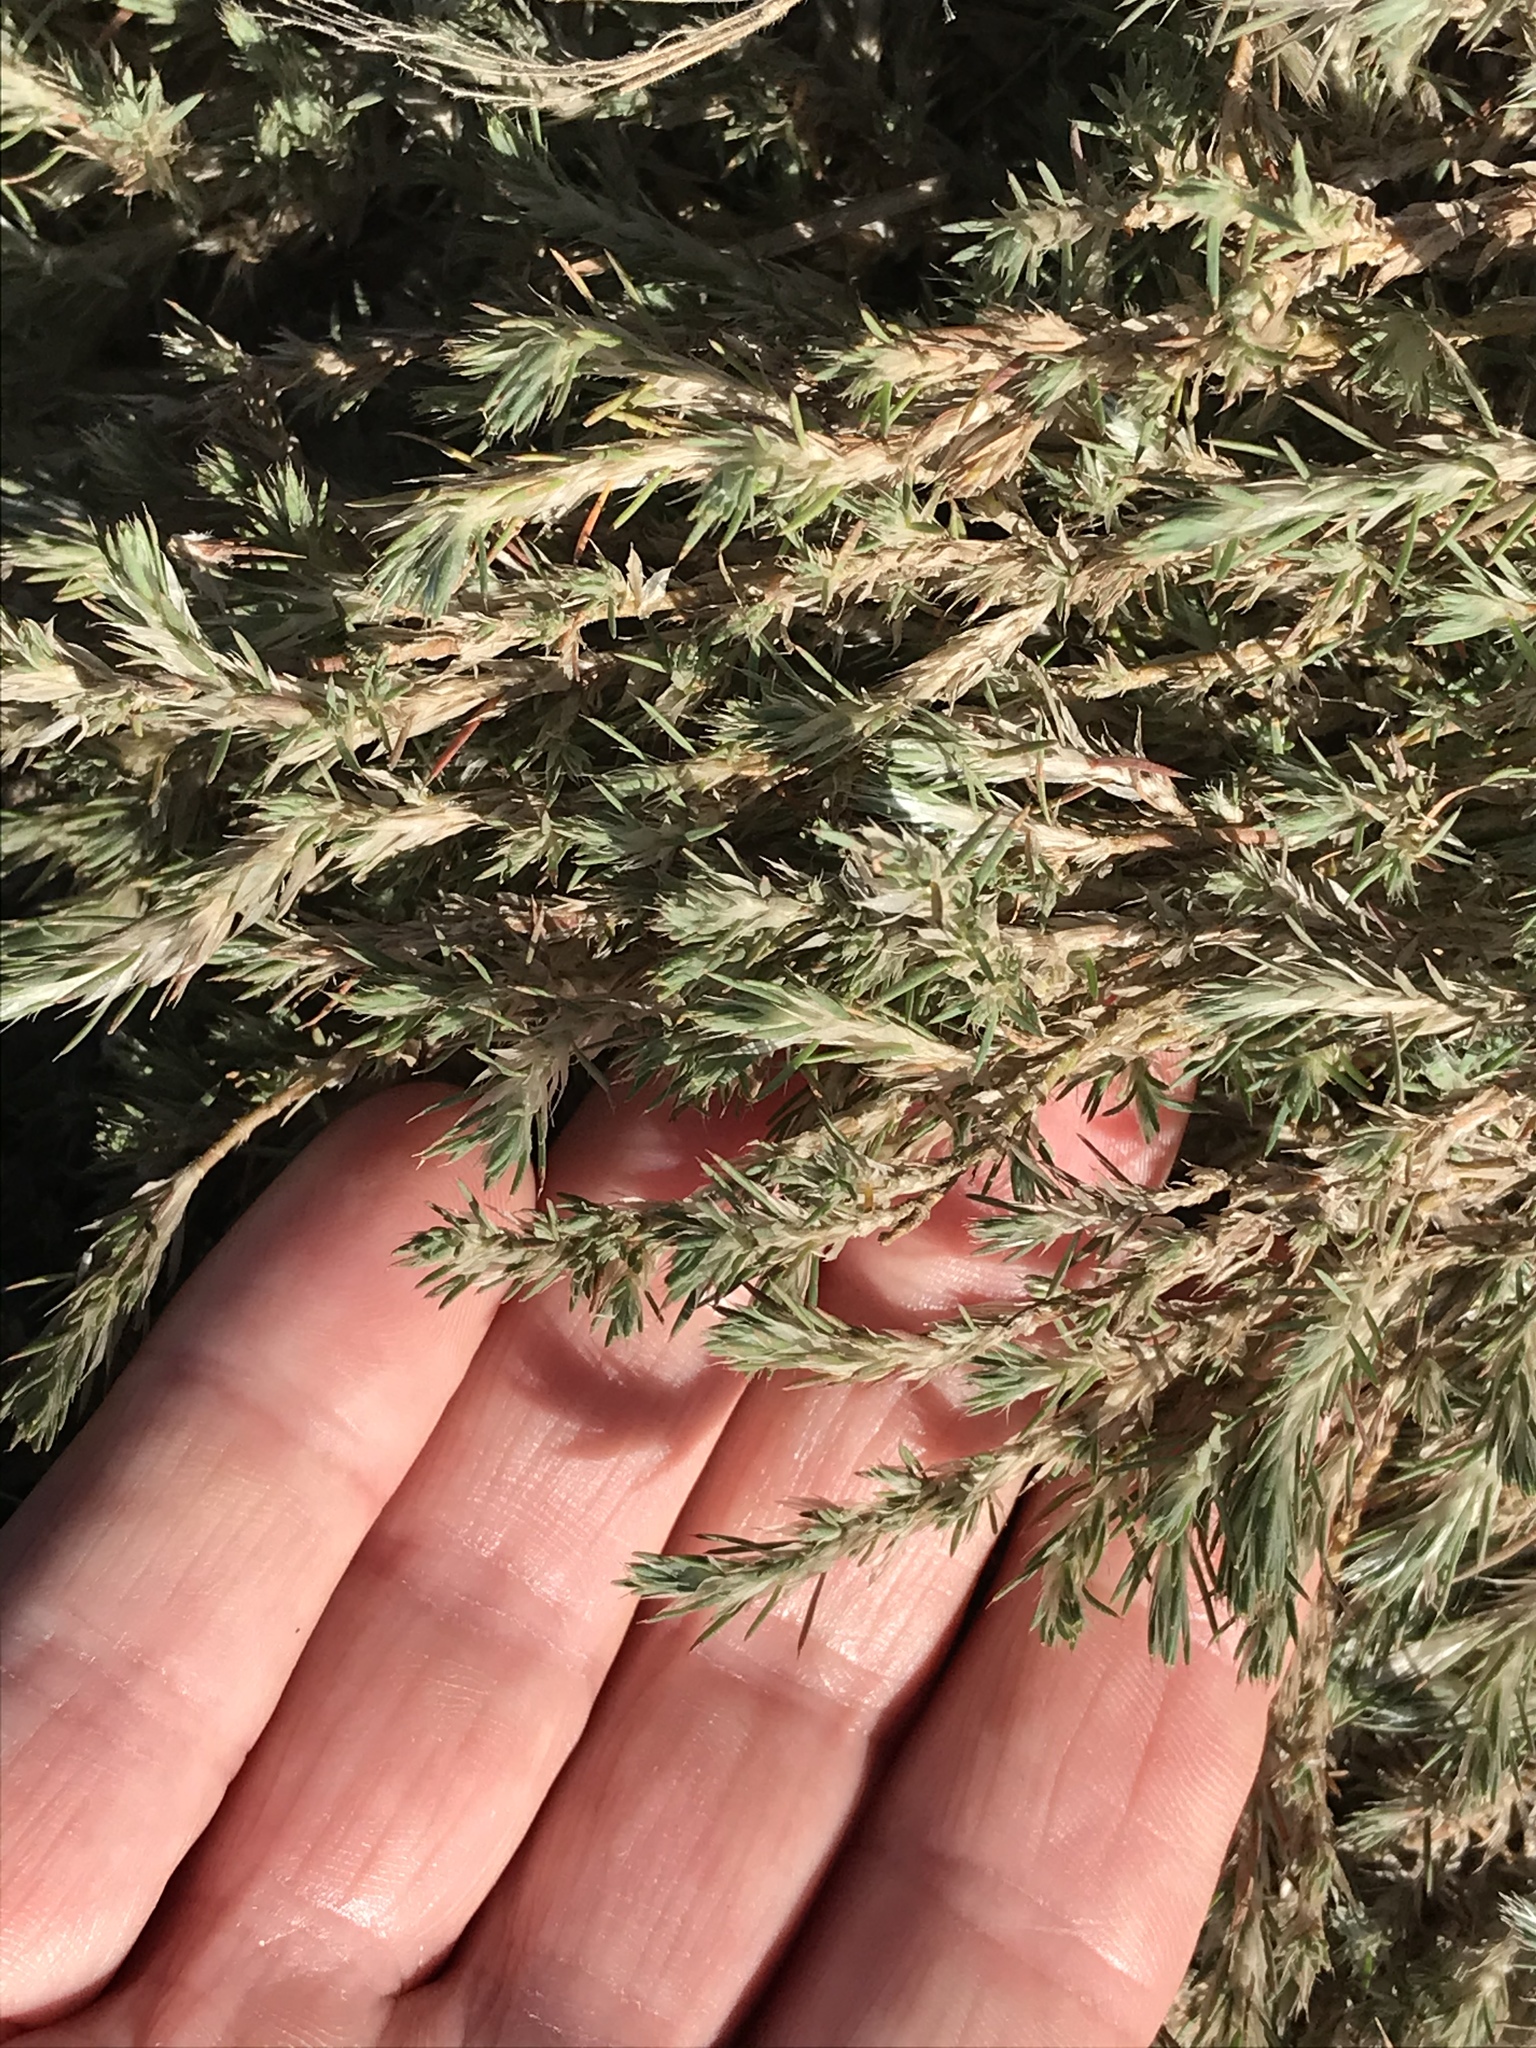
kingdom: Plantae
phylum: Tracheophyta
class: Magnoliopsida
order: Caryophyllales
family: Caryophyllaceae
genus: Cardionema
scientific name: Cardionema ramosissima
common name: Sandcarpet
